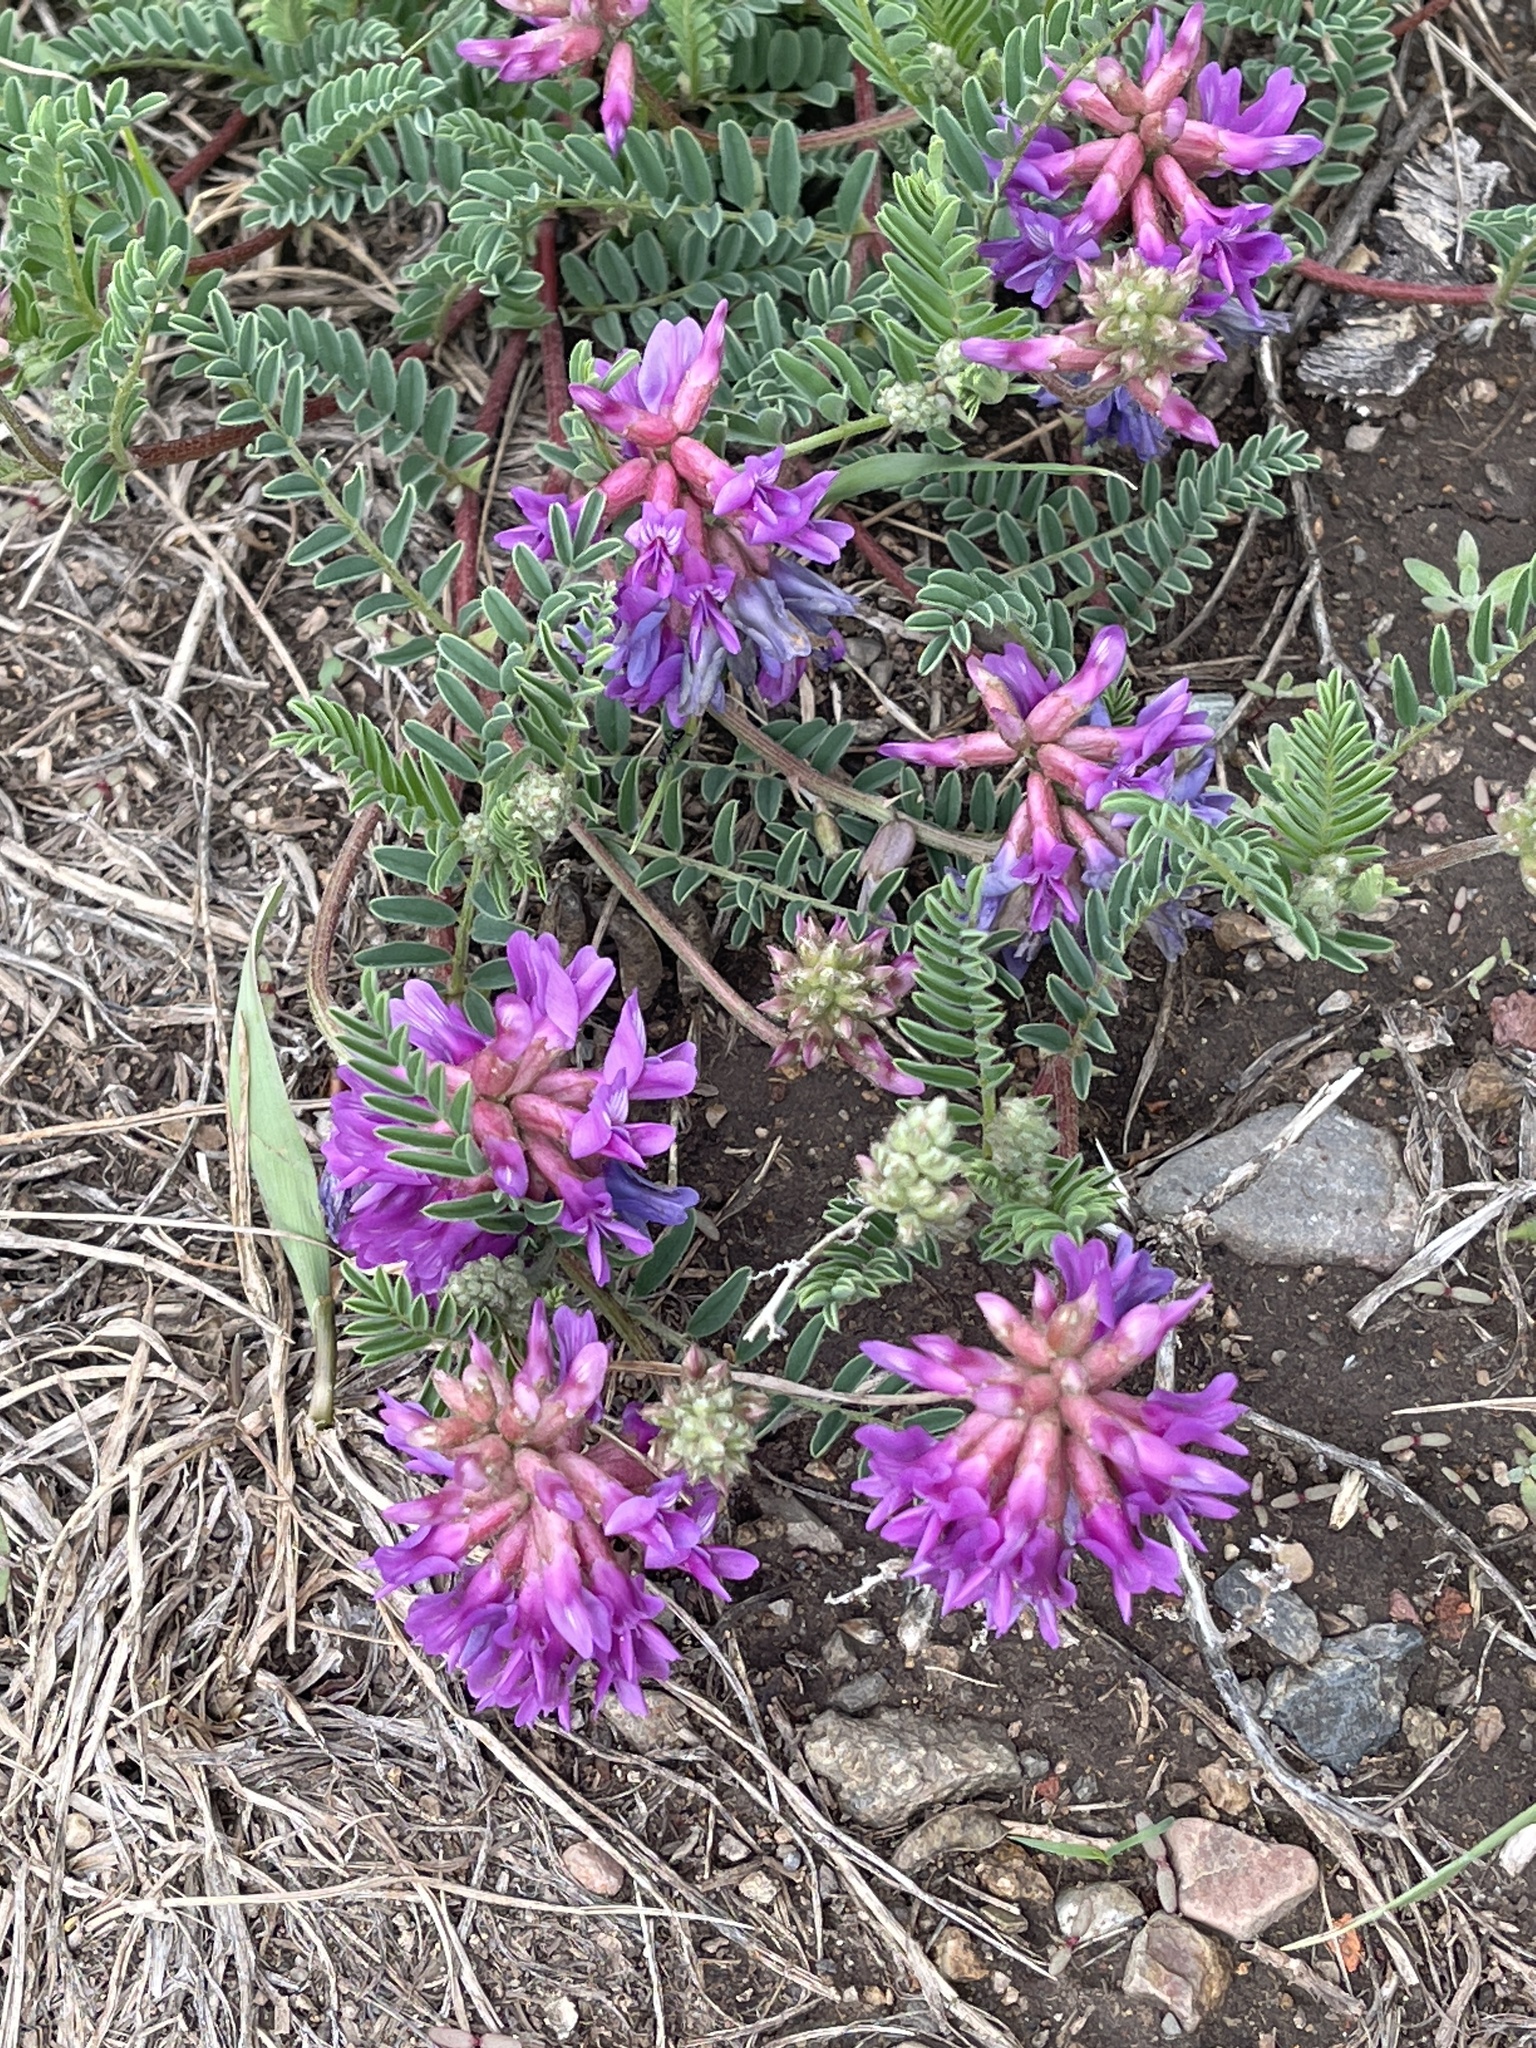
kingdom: Plantae
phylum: Tracheophyta
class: Magnoliopsida
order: Fabales
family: Fabaceae
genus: Astragalus
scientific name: Astragalus hallii
